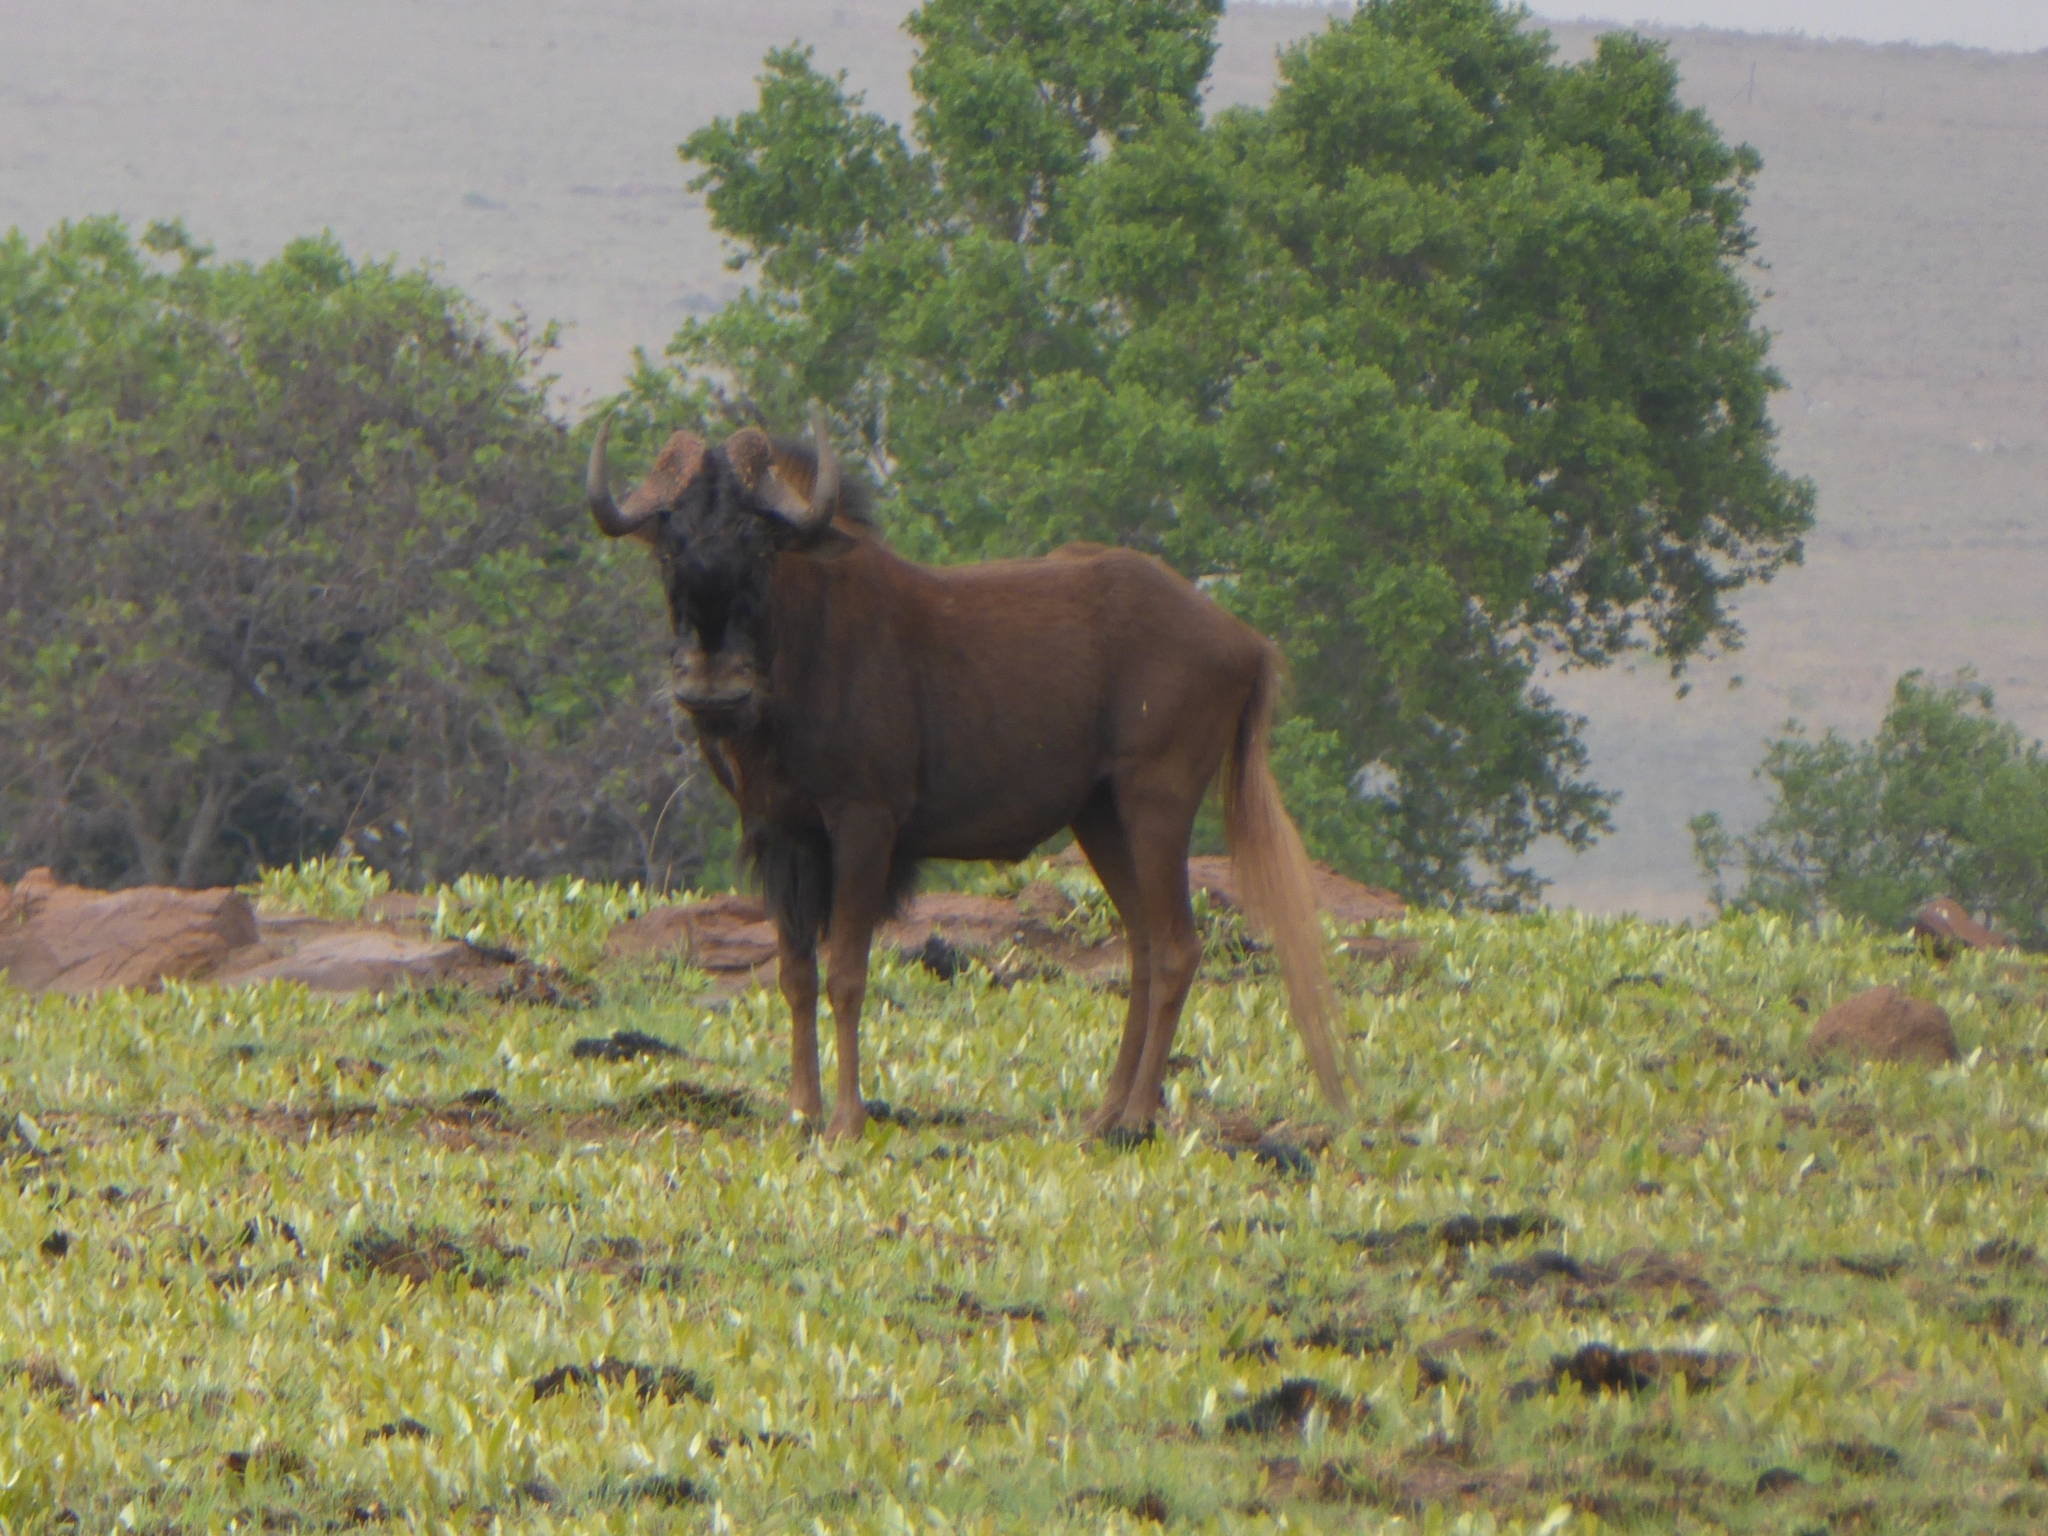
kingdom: Animalia
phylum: Chordata
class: Mammalia
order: Artiodactyla
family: Bovidae
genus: Connochaetes
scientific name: Connochaetes gnou
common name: Black wildebeest
